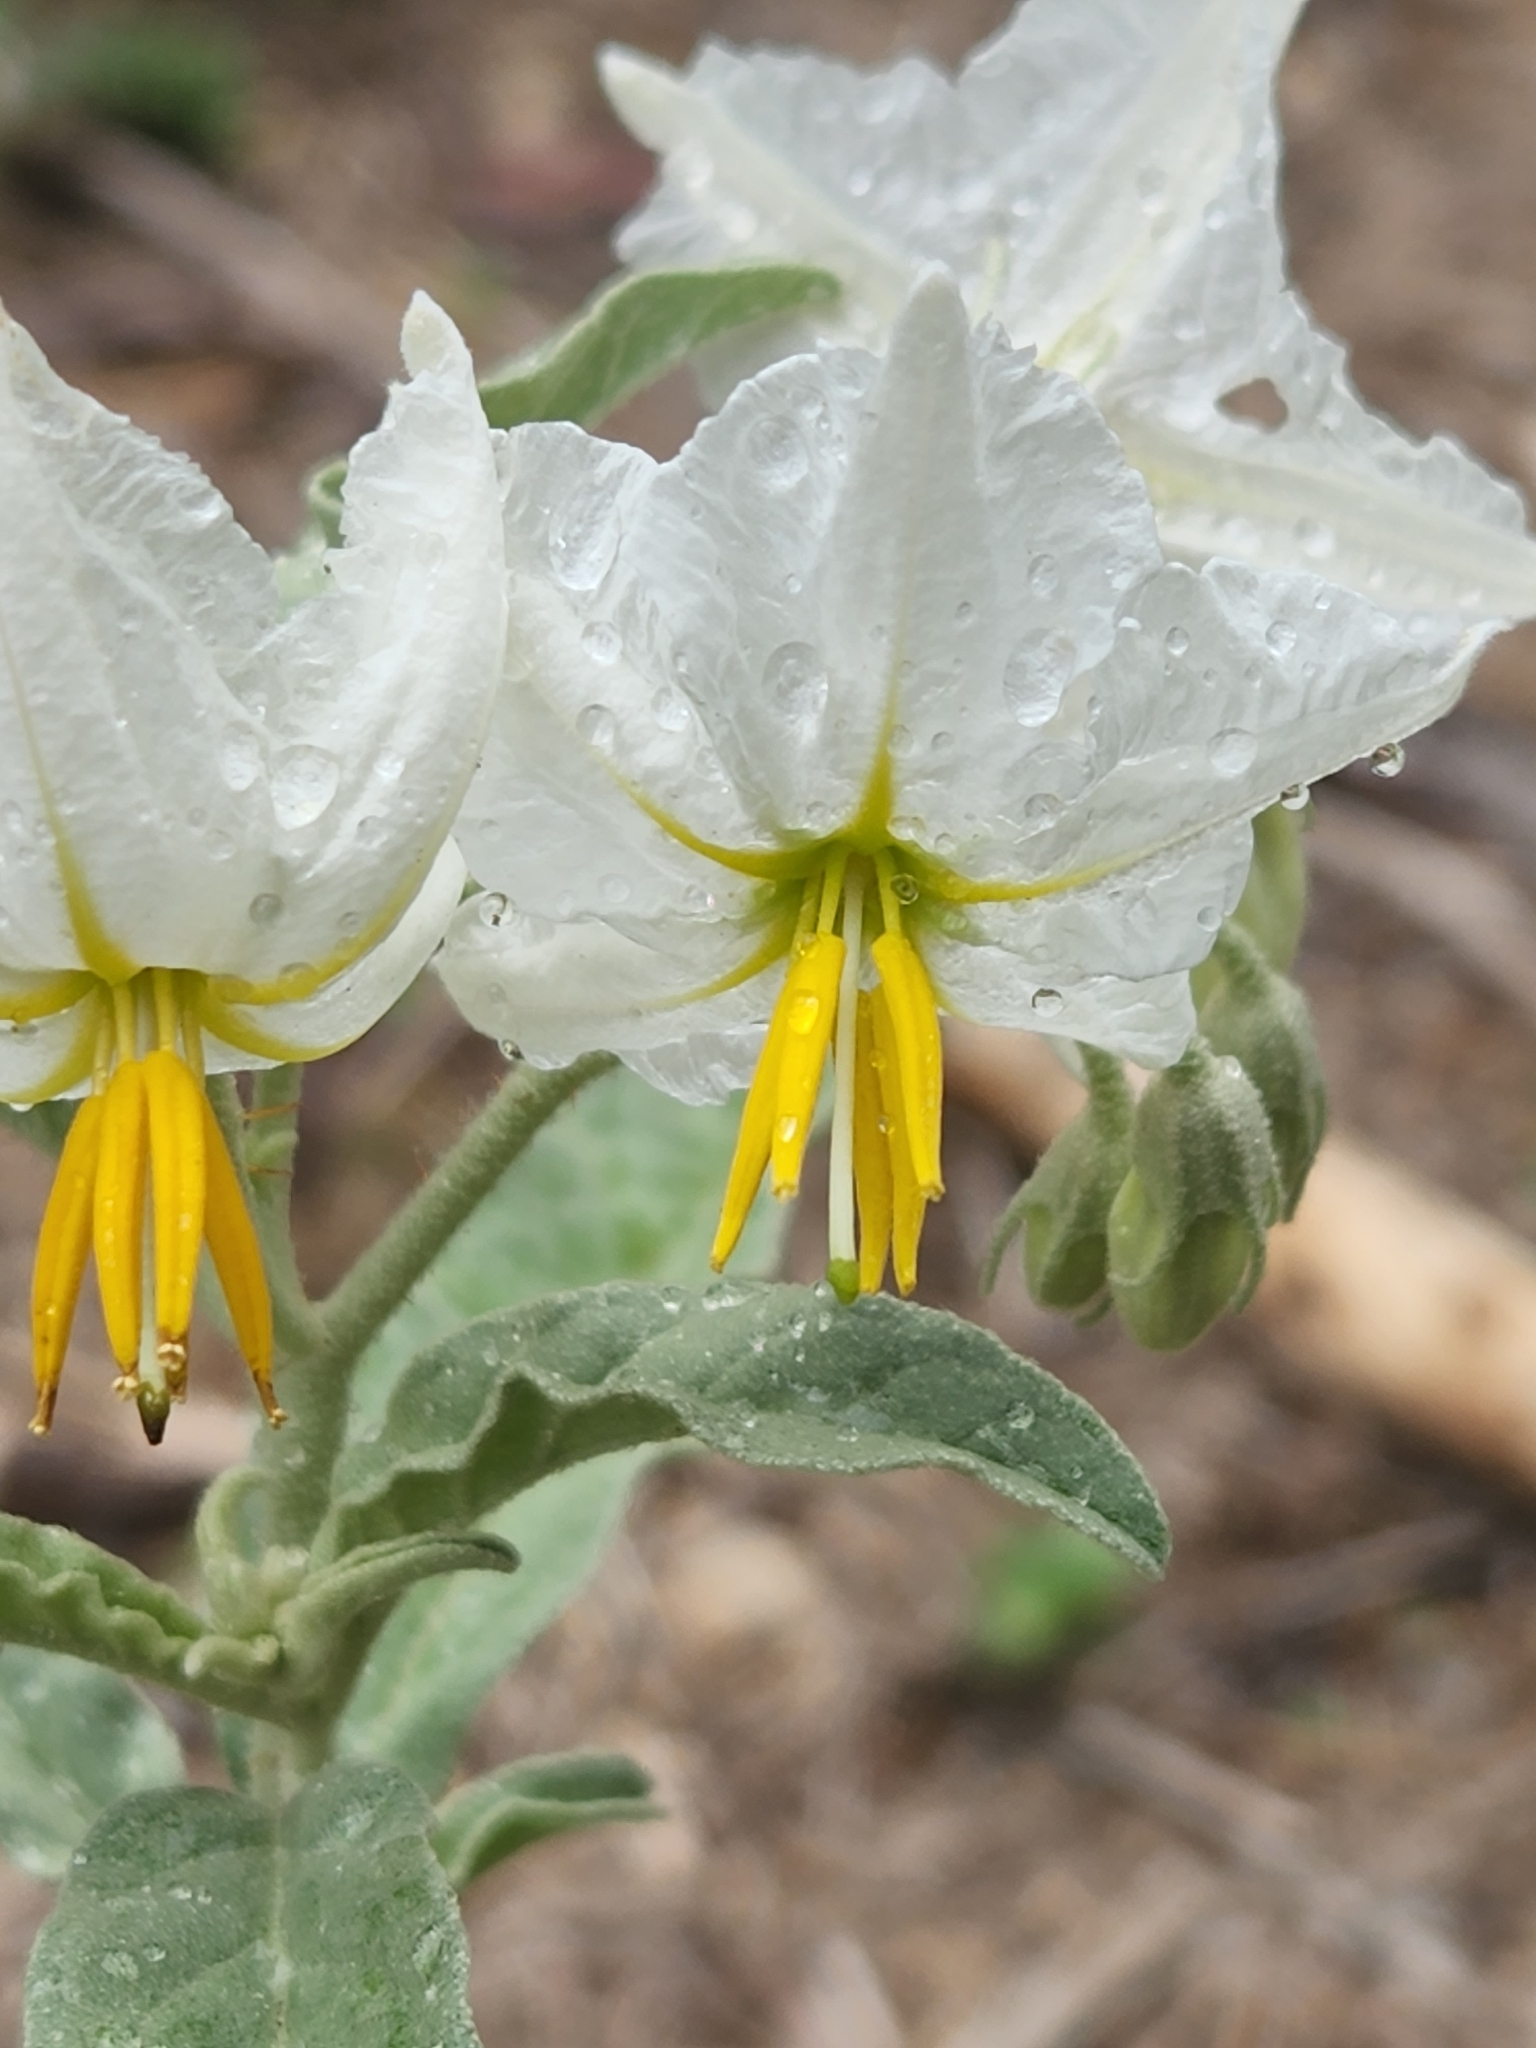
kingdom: Plantae
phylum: Tracheophyta
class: Magnoliopsida
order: Solanales
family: Solanaceae
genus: Solanum
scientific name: Solanum elaeagnifolium
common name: Silverleaf nightshade
